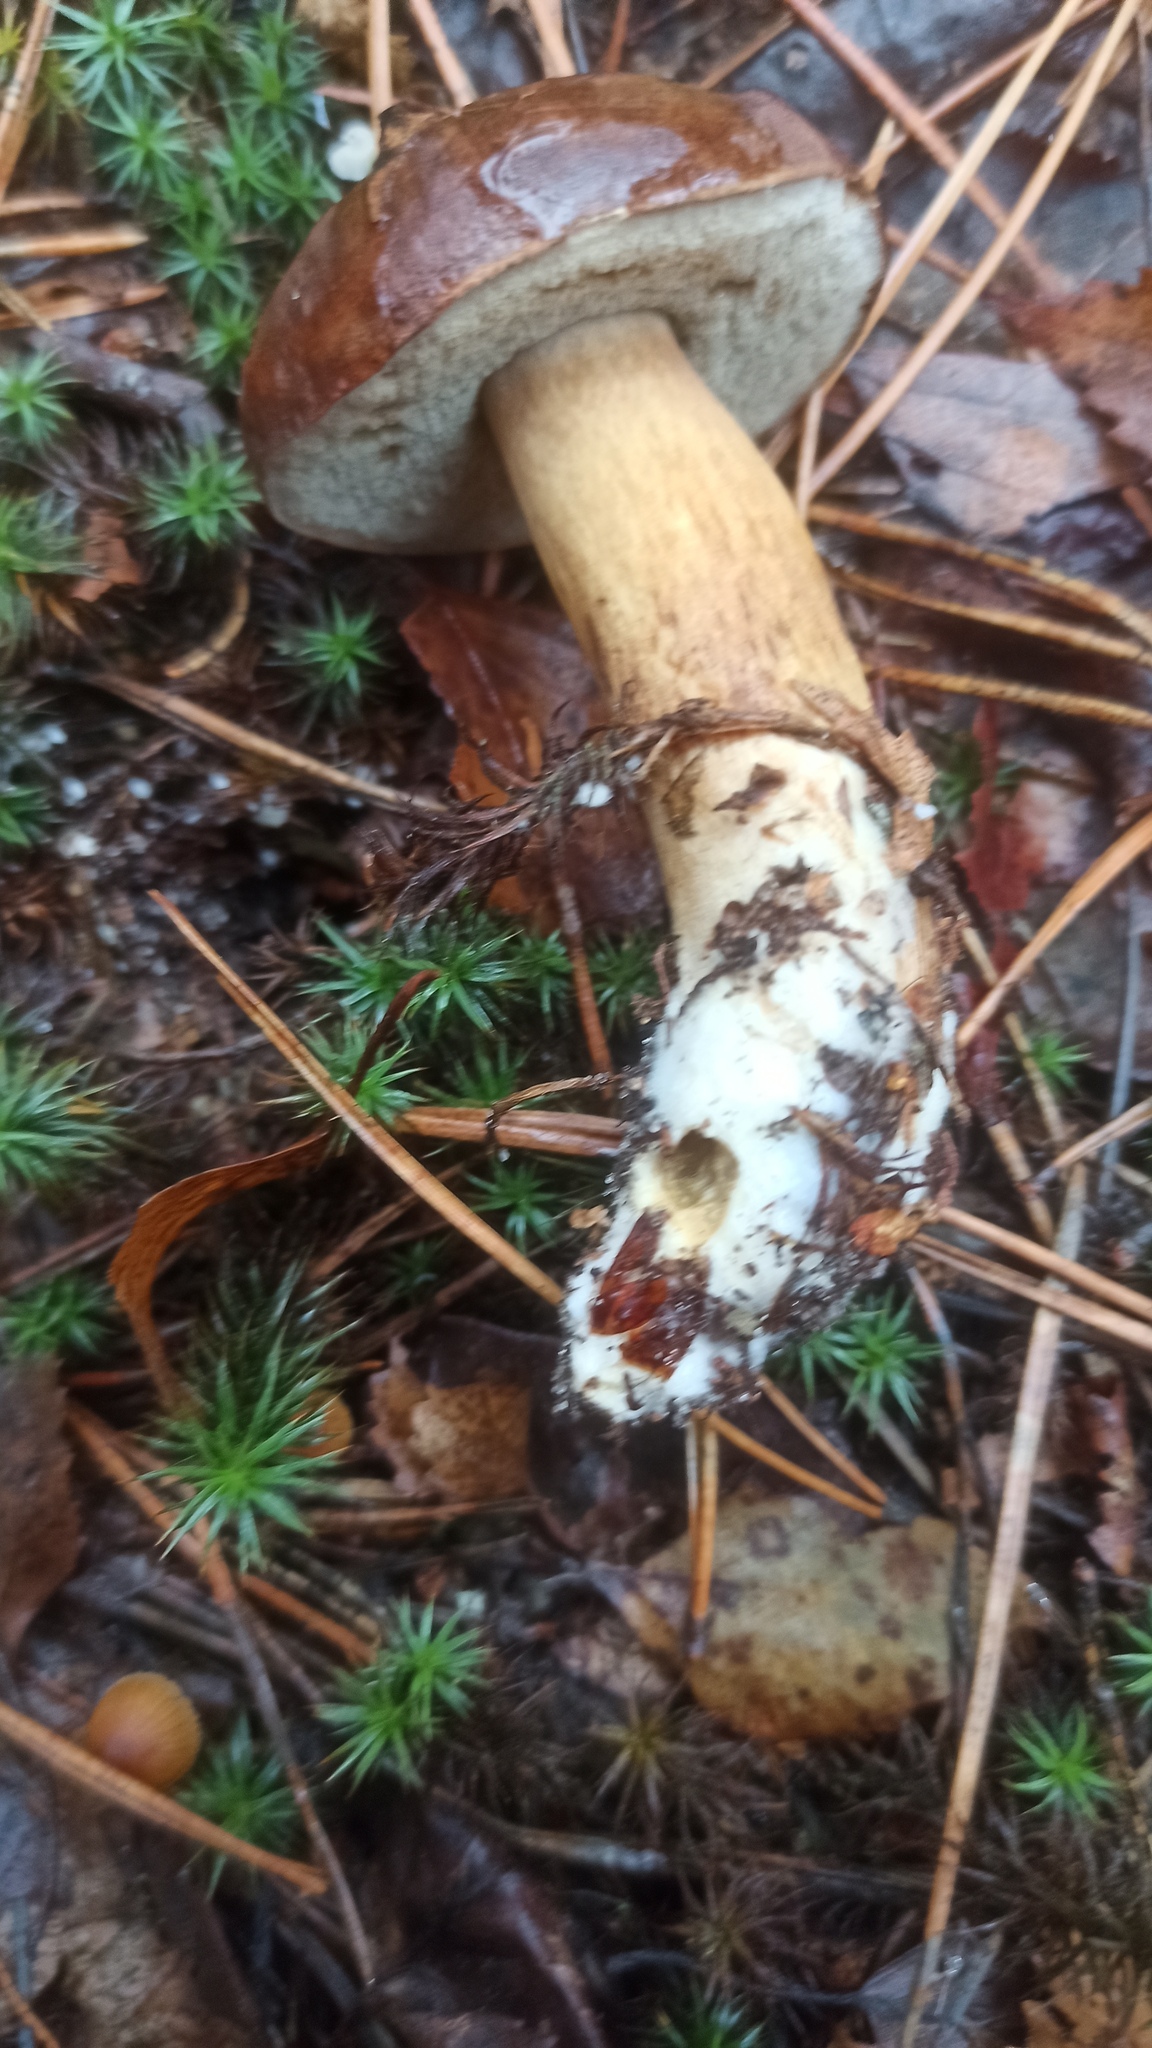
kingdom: Fungi
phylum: Basidiomycota
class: Agaricomycetes
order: Boletales
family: Boletaceae
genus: Imleria
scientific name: Imleria badia
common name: Bay bolete
